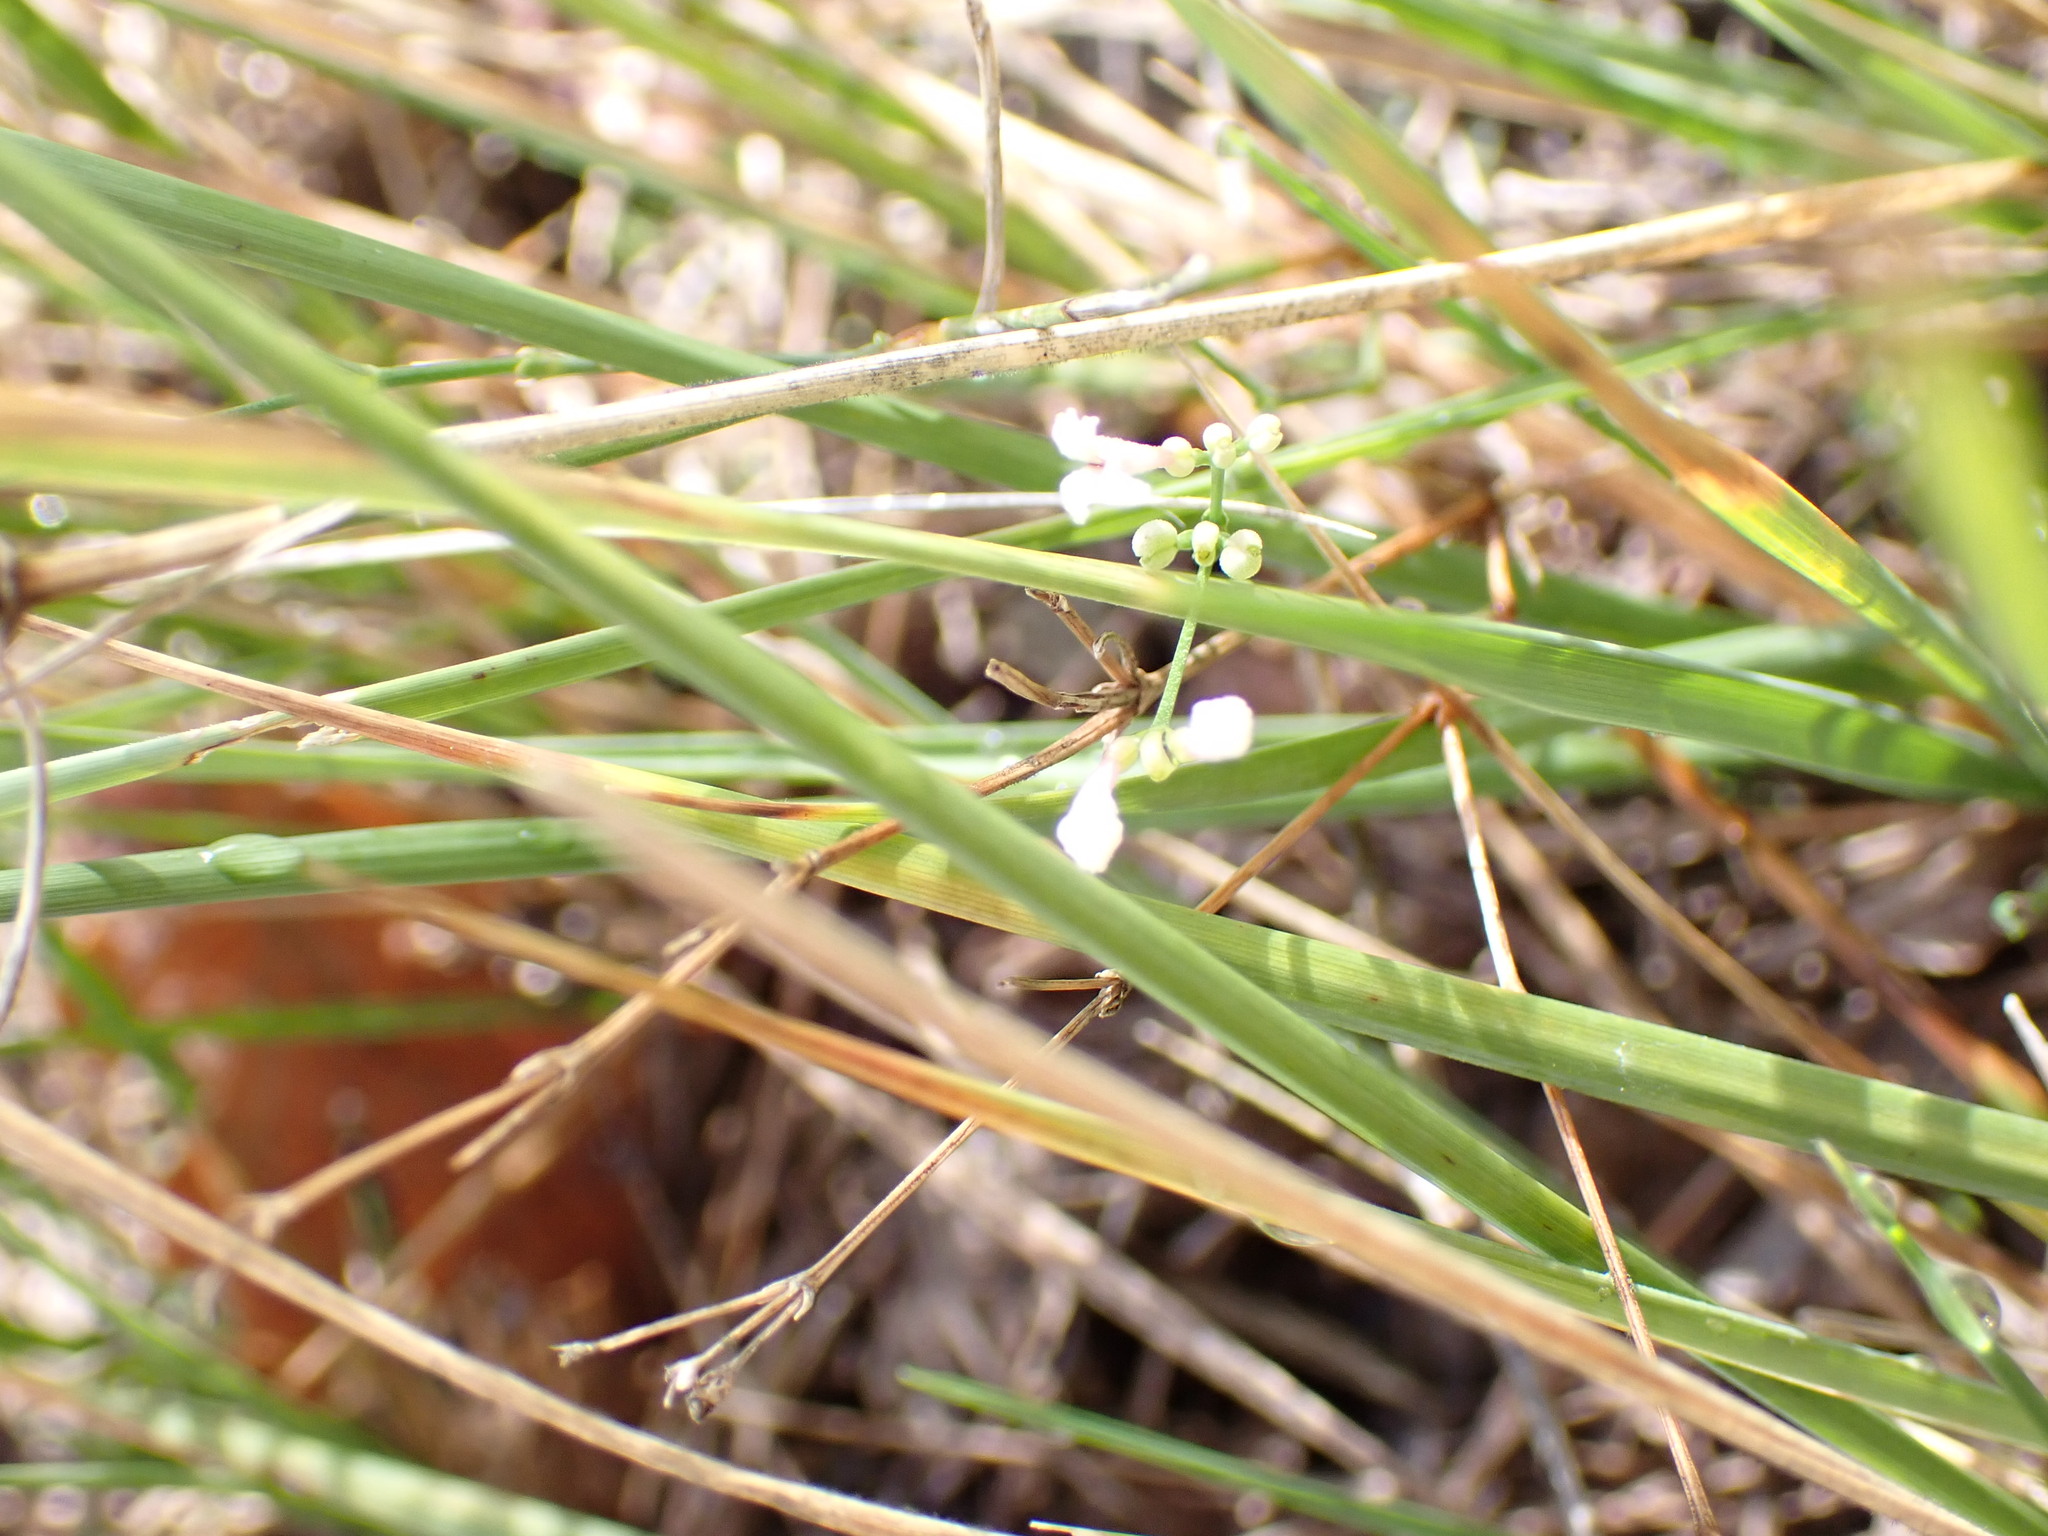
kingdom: Plantae
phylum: Tracheophyta
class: Magnoliopsida
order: Gentianales
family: Rubiaceae
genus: Cynanchica
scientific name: Cynanchica pyrenaica
